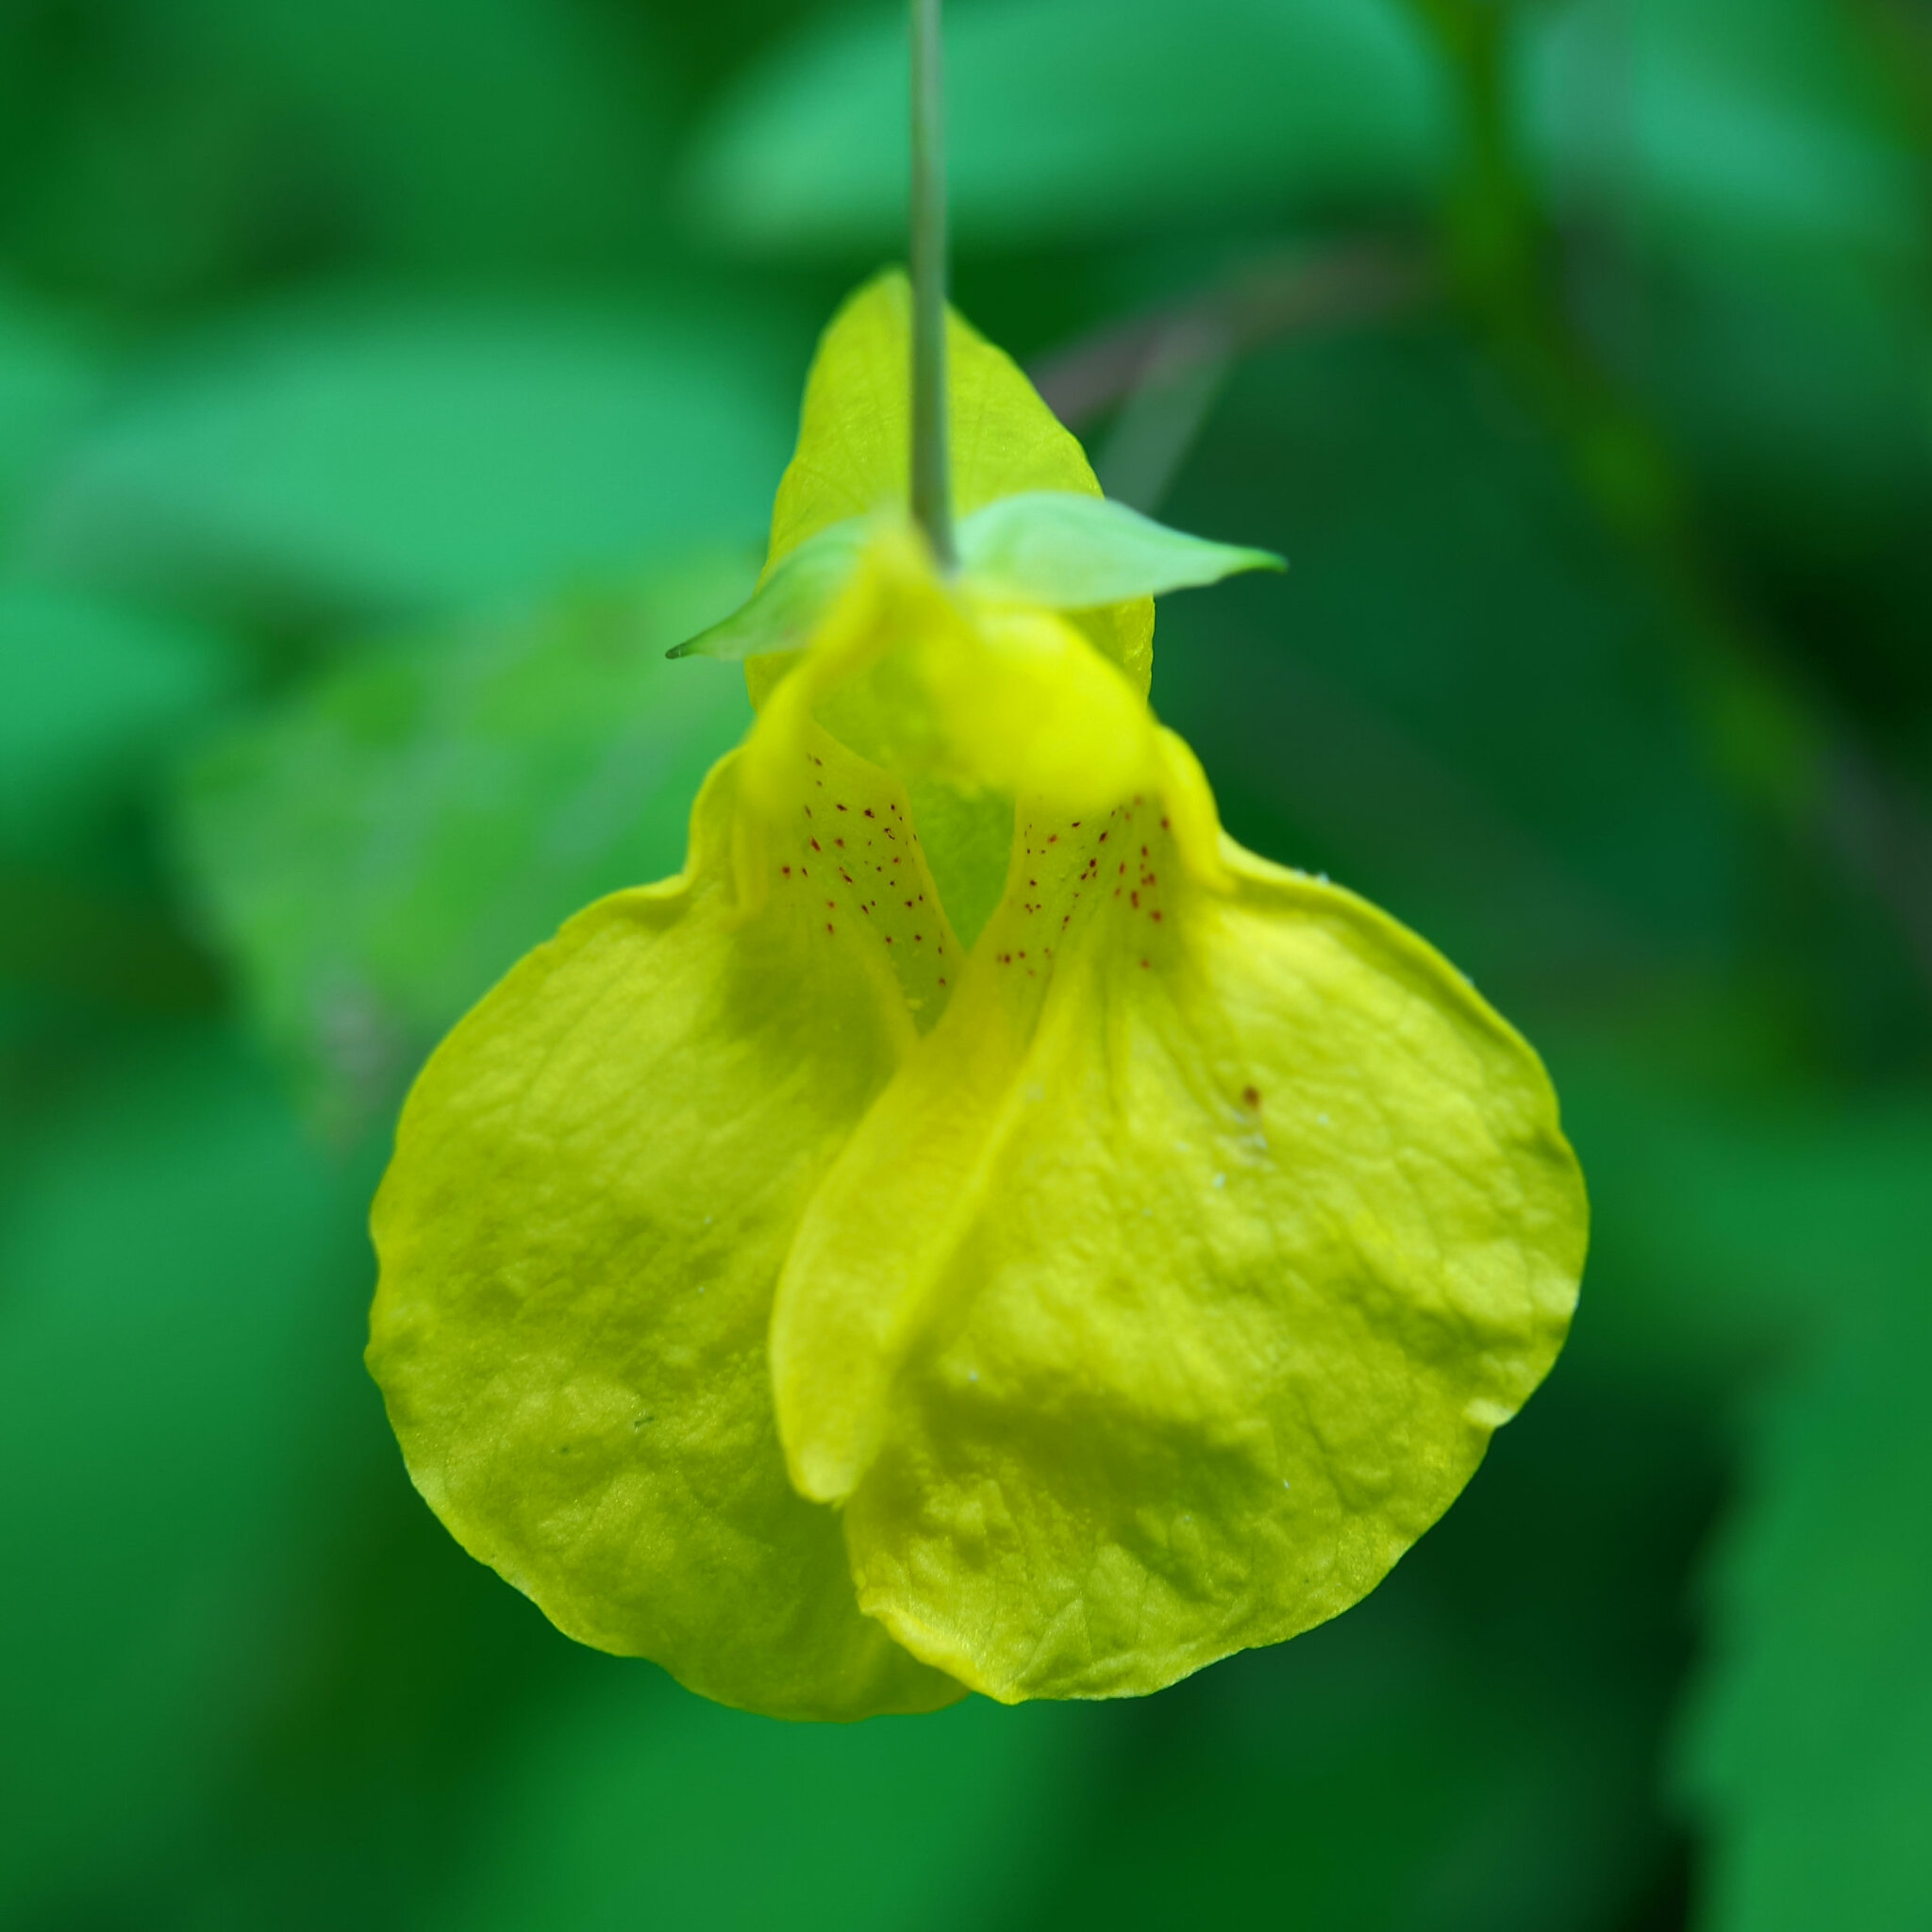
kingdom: Plantae
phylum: Tracheophyta
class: Magnoliopsida
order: Ericales
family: Balsaminaceae
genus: Impatiens
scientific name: Impatiens noli-tangere
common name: Touch-me-not balsam
